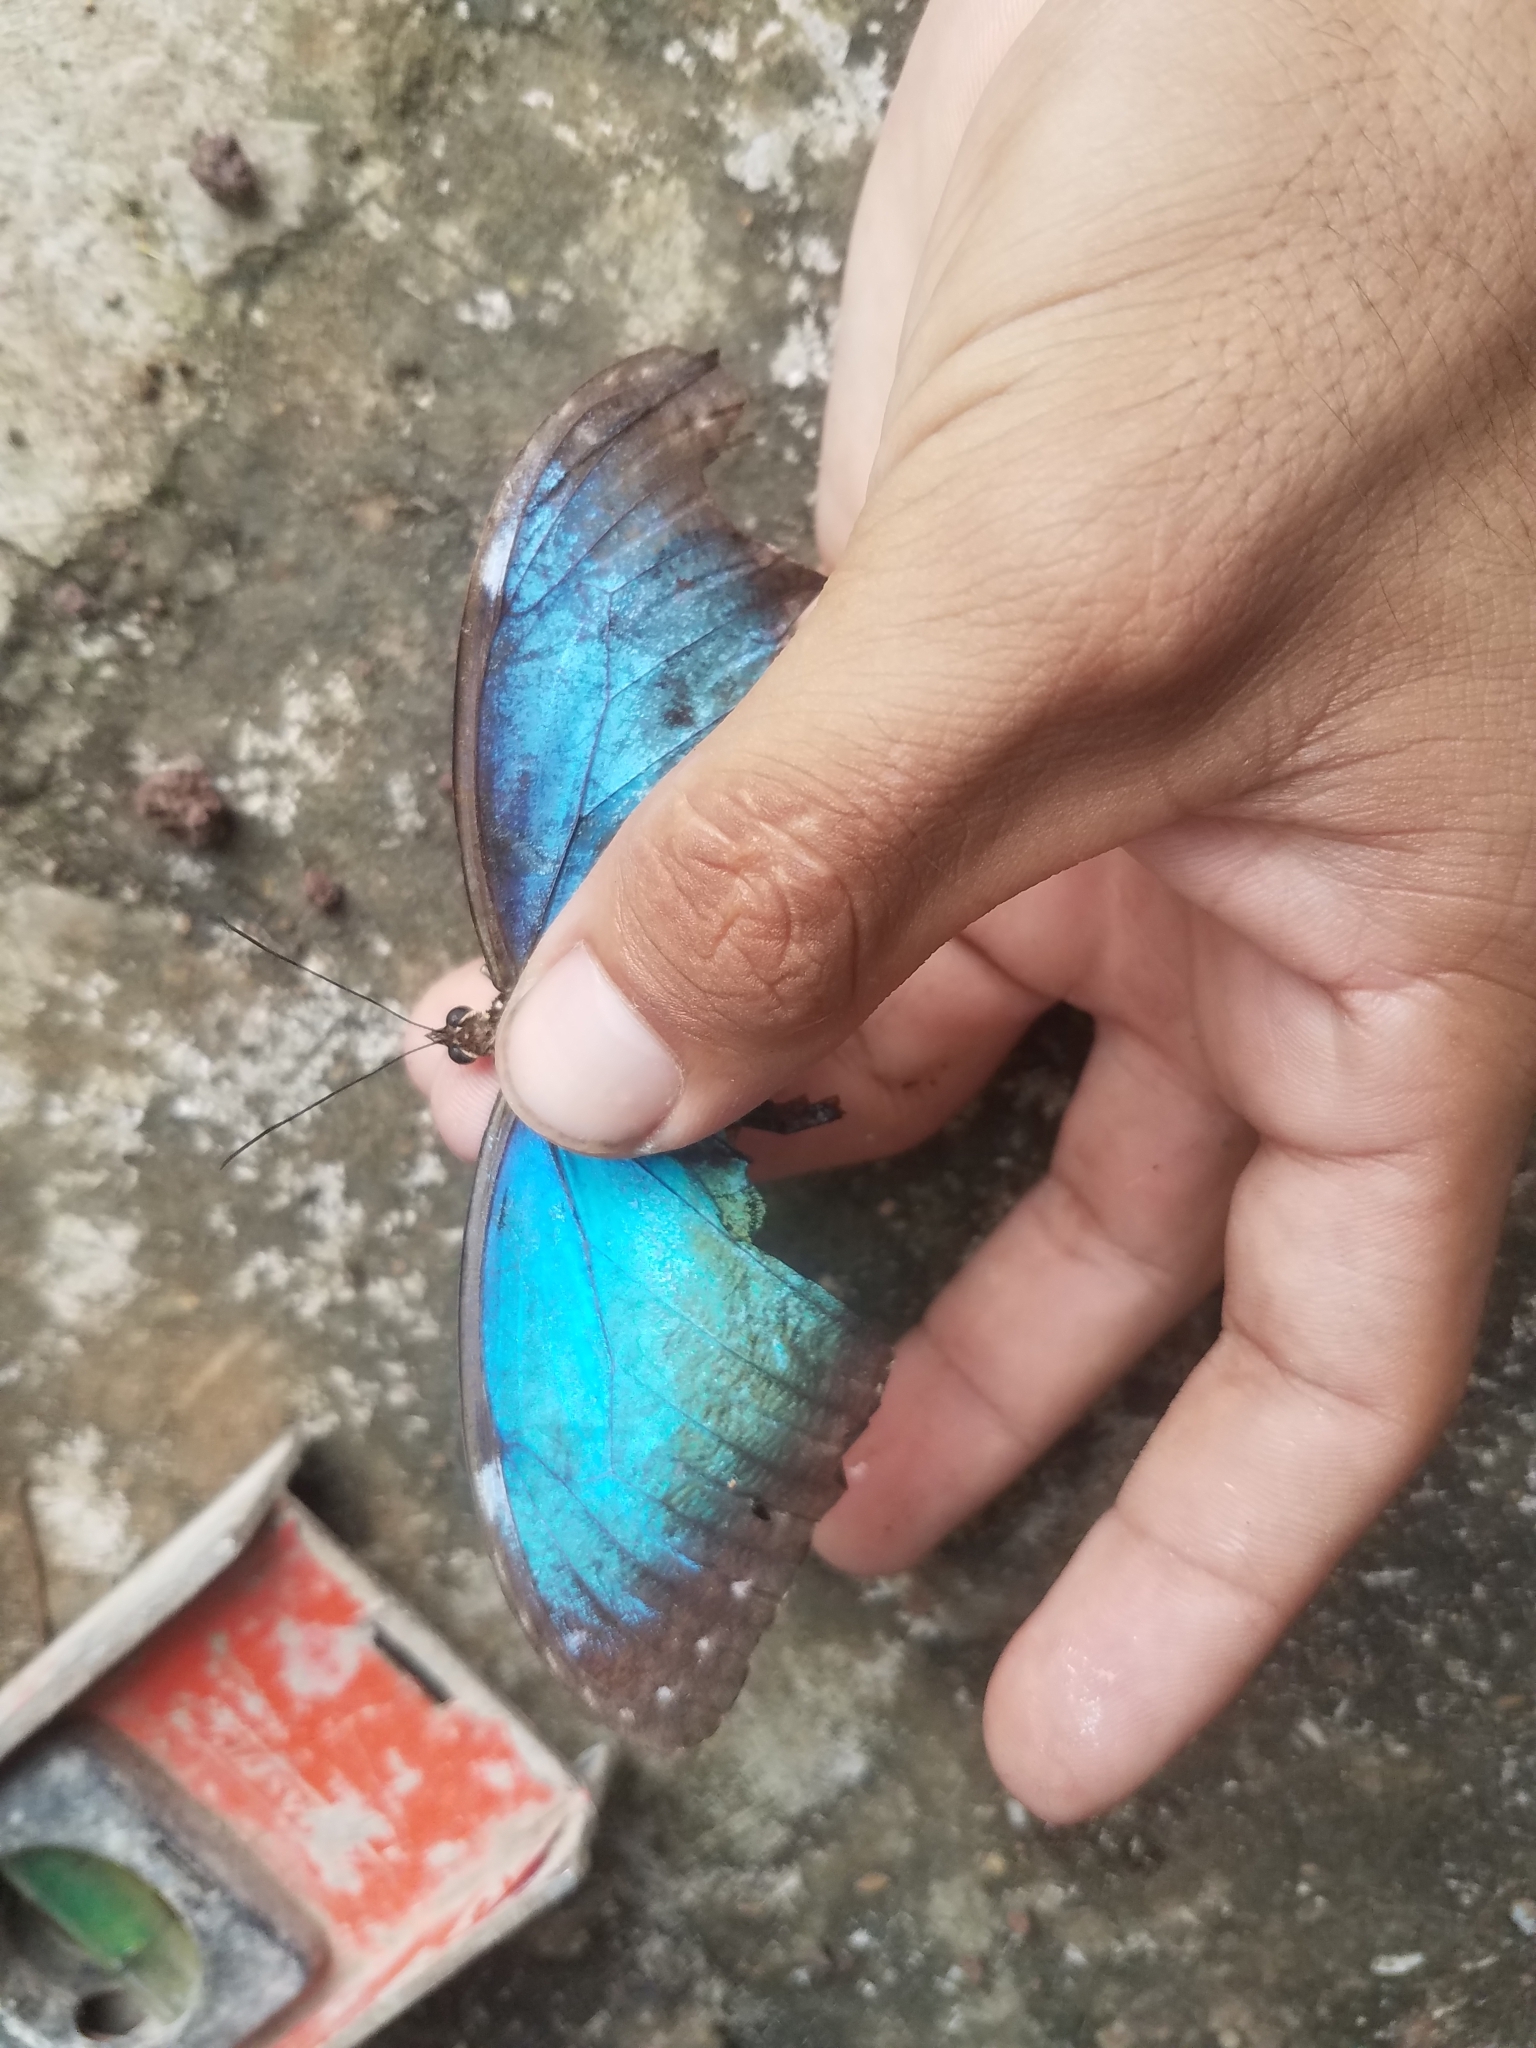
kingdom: Animalia
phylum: Arthropoda
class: Insecta
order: Lepidoptera
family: Nymphalidae
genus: Morpho
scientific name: Morpho helenor
